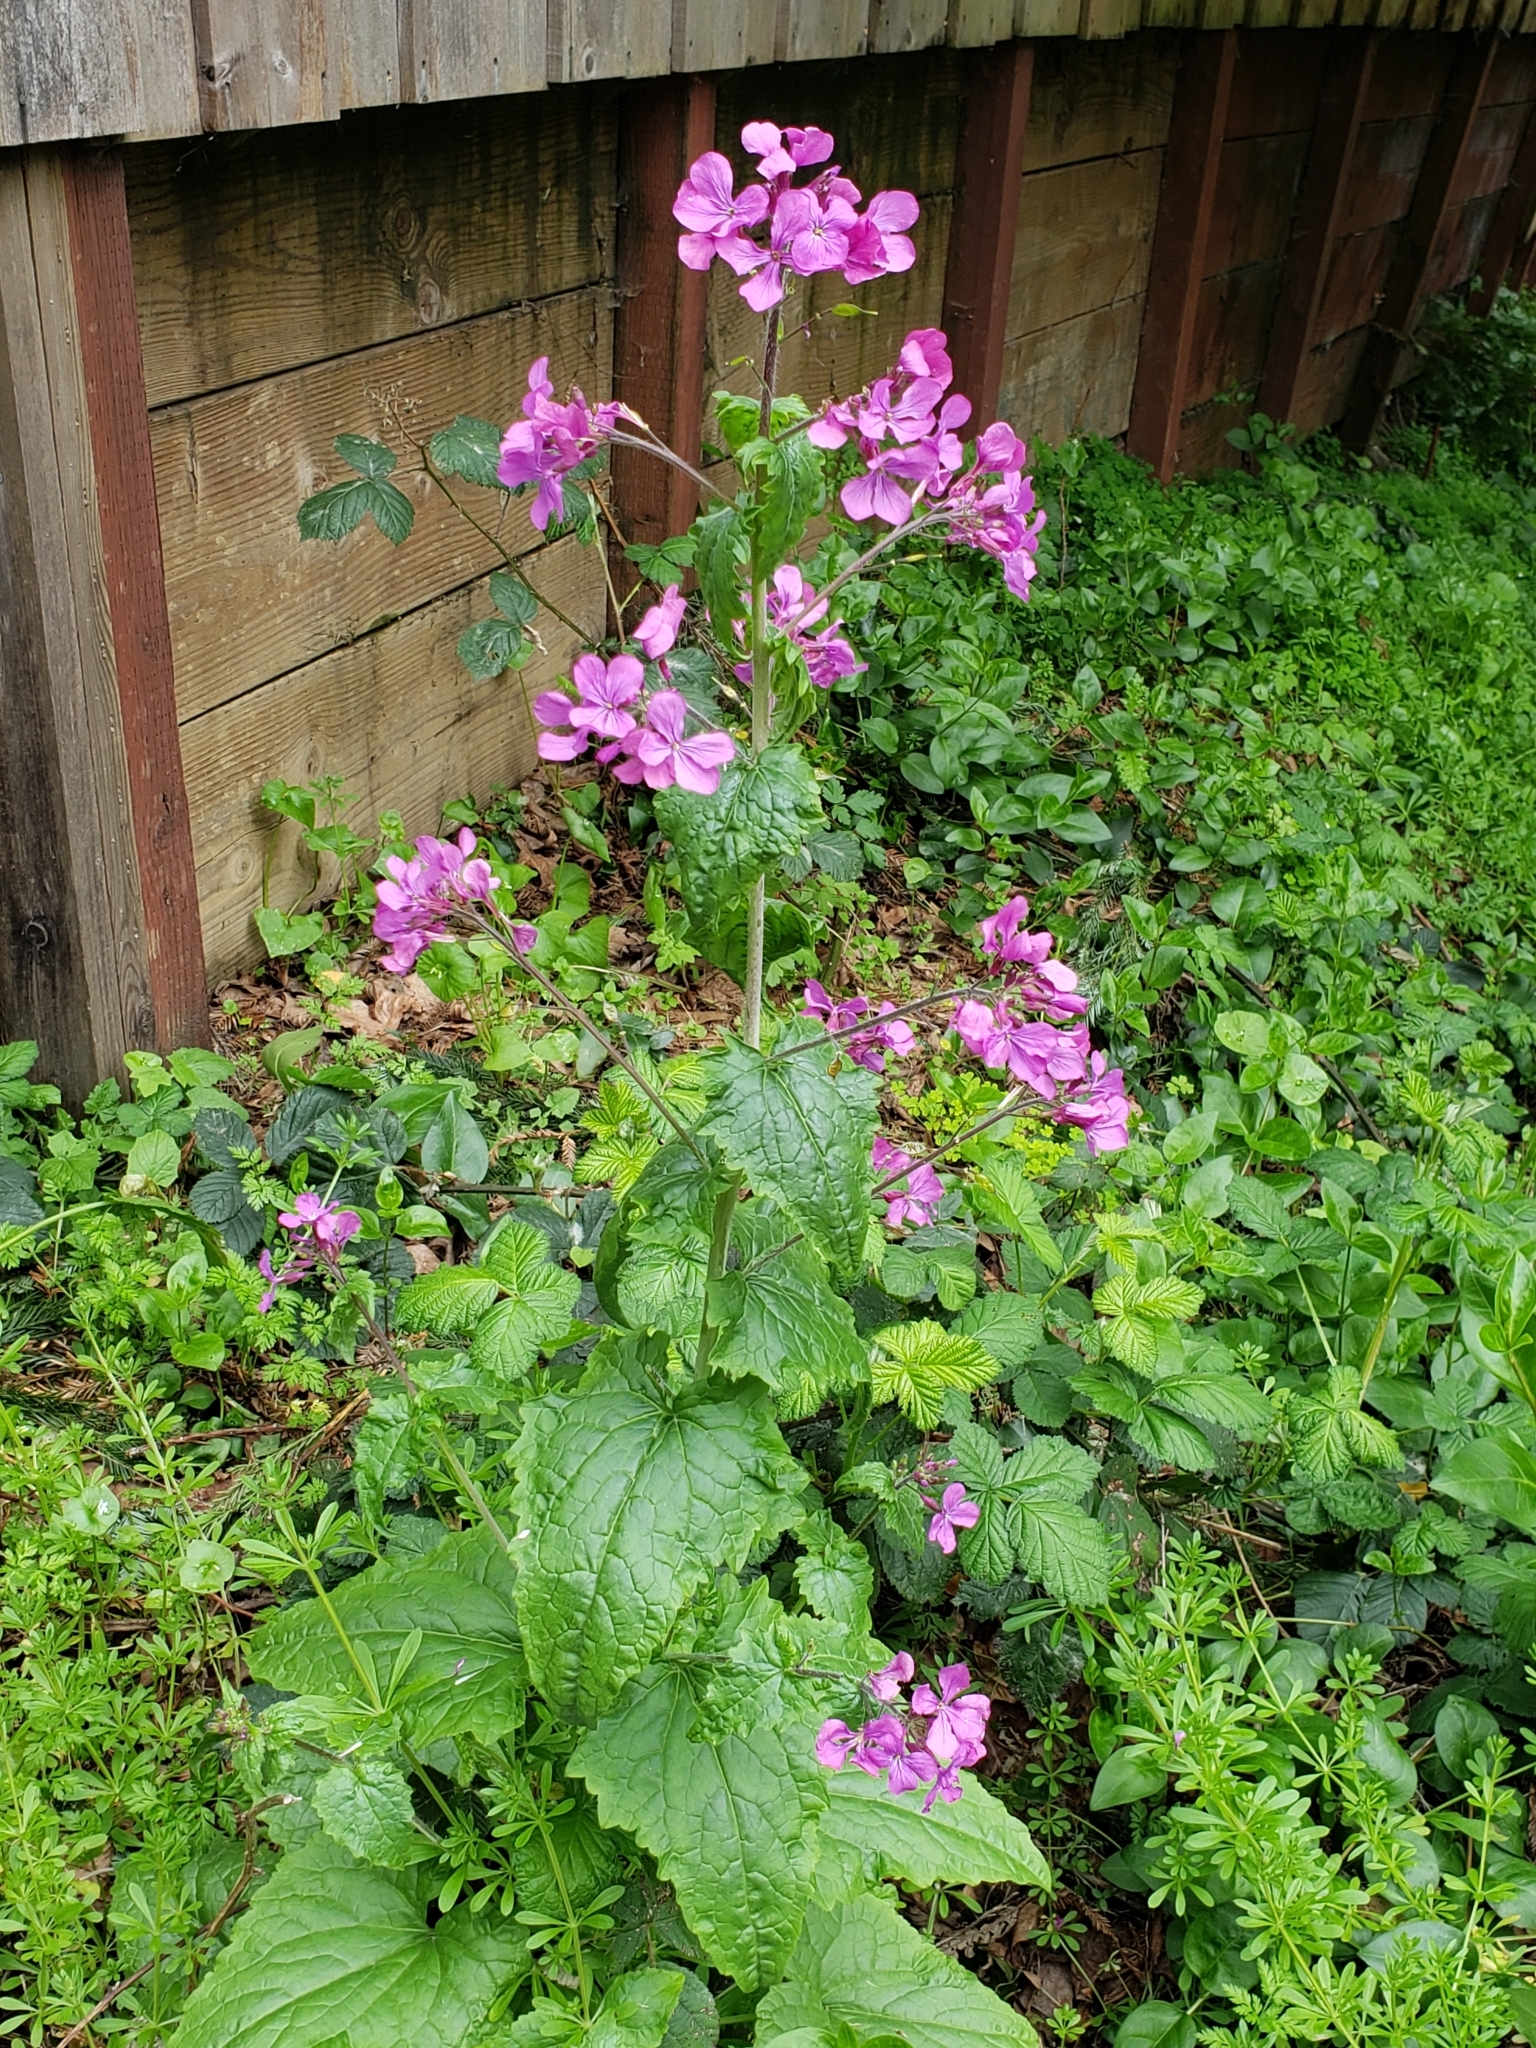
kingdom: Plantae
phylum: Tracheophyta
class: Magnoliopsida
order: Brassicales
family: Brassicaceae
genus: Lunaria
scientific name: Lunaria annua
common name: Honesty
